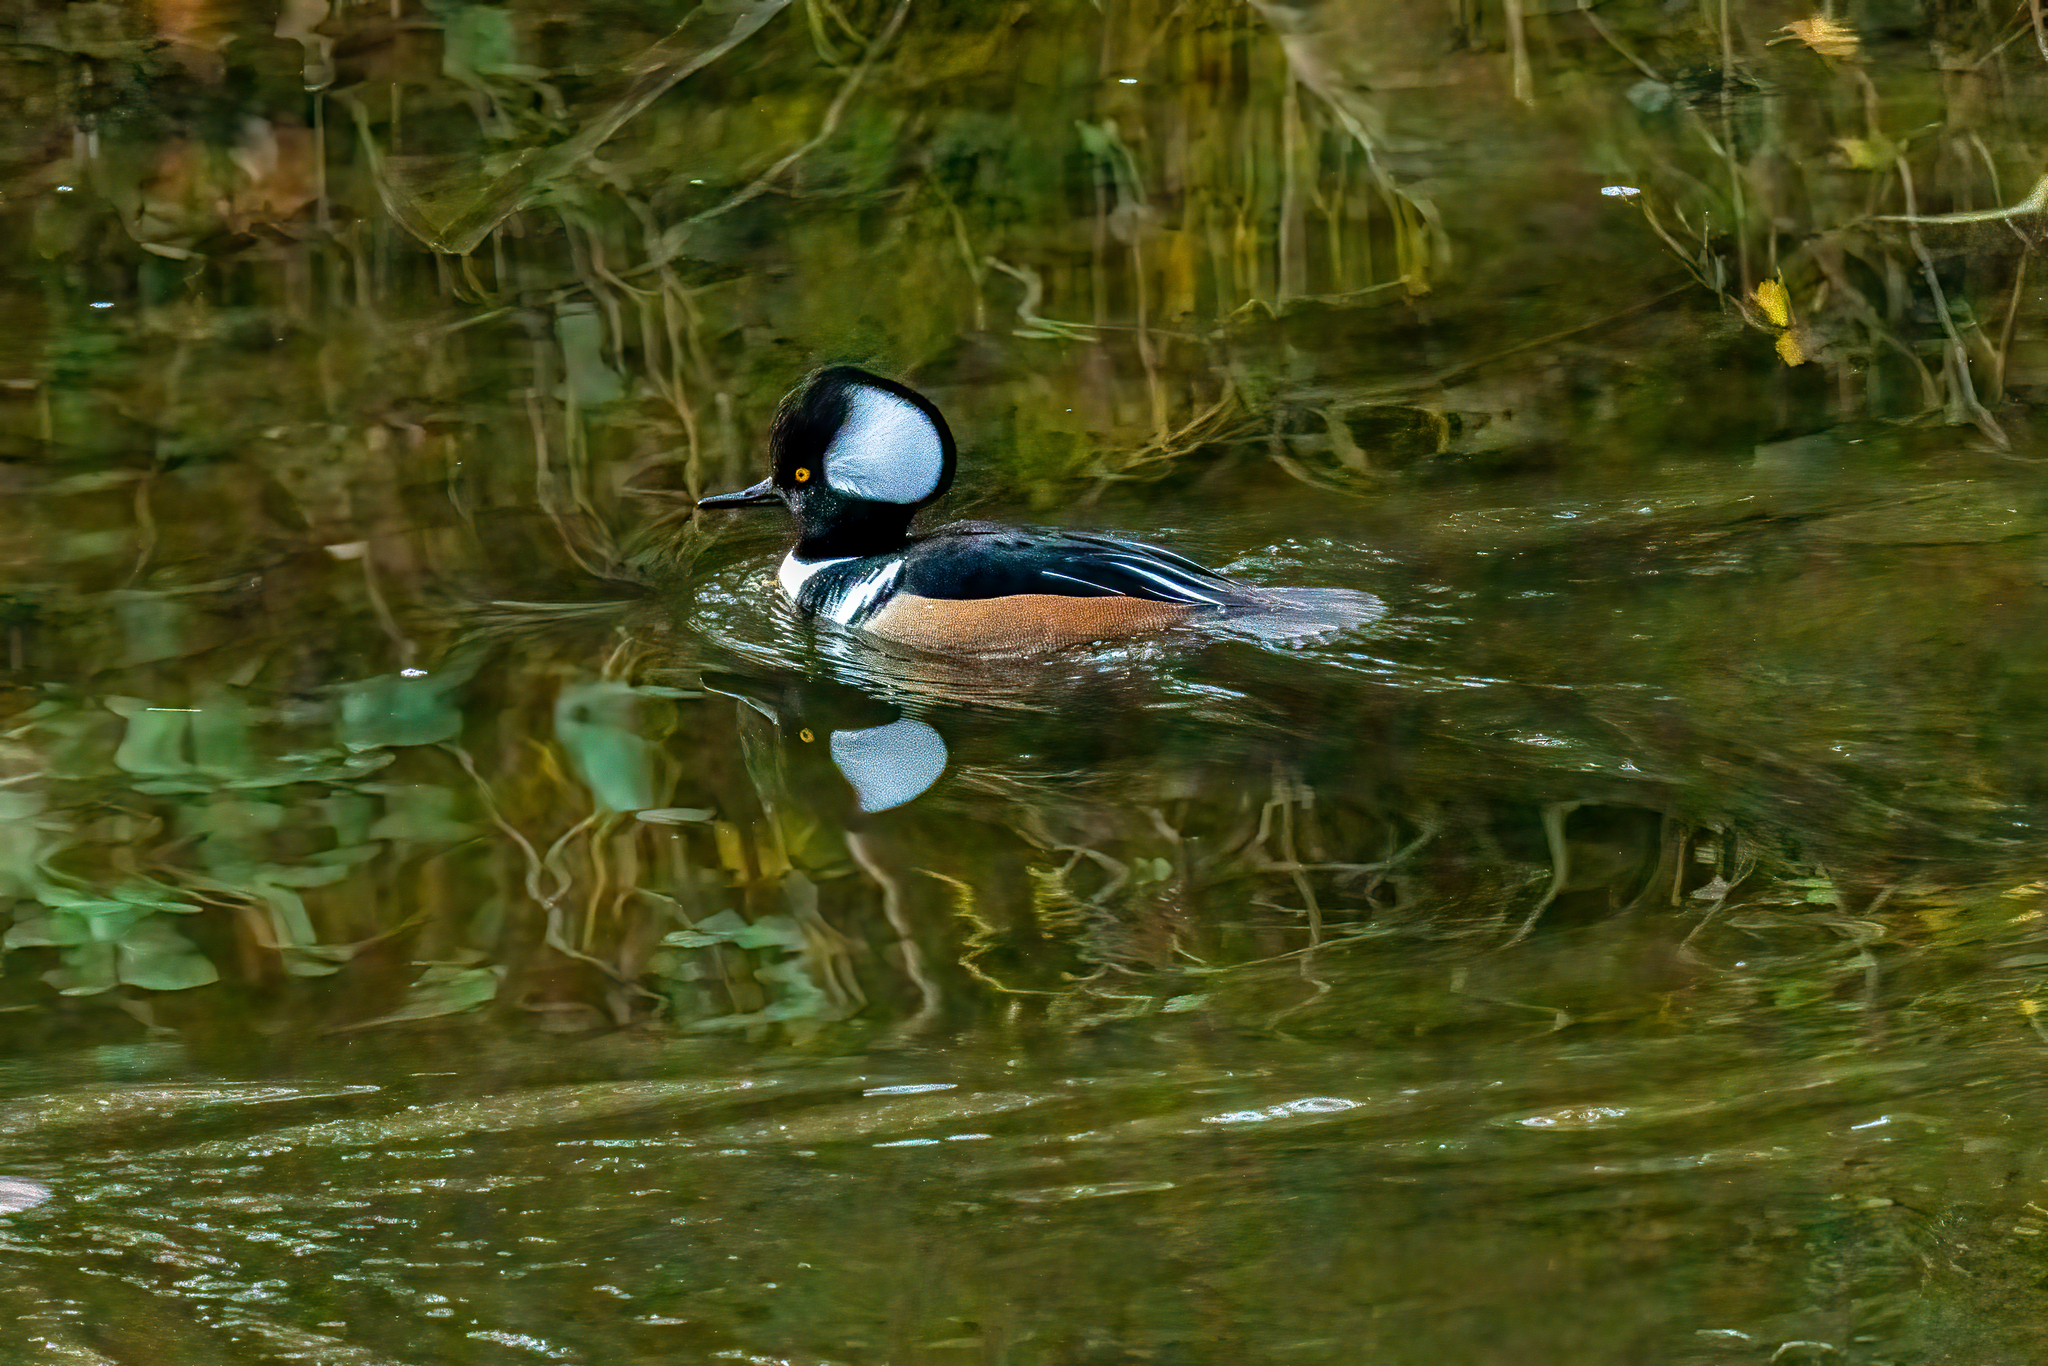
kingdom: Animalia
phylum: Chordata
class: Aves
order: Anseriformes
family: Anatidae
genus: Lophodytes
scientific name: Lophodytes cucullatus
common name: Hooded merganser
